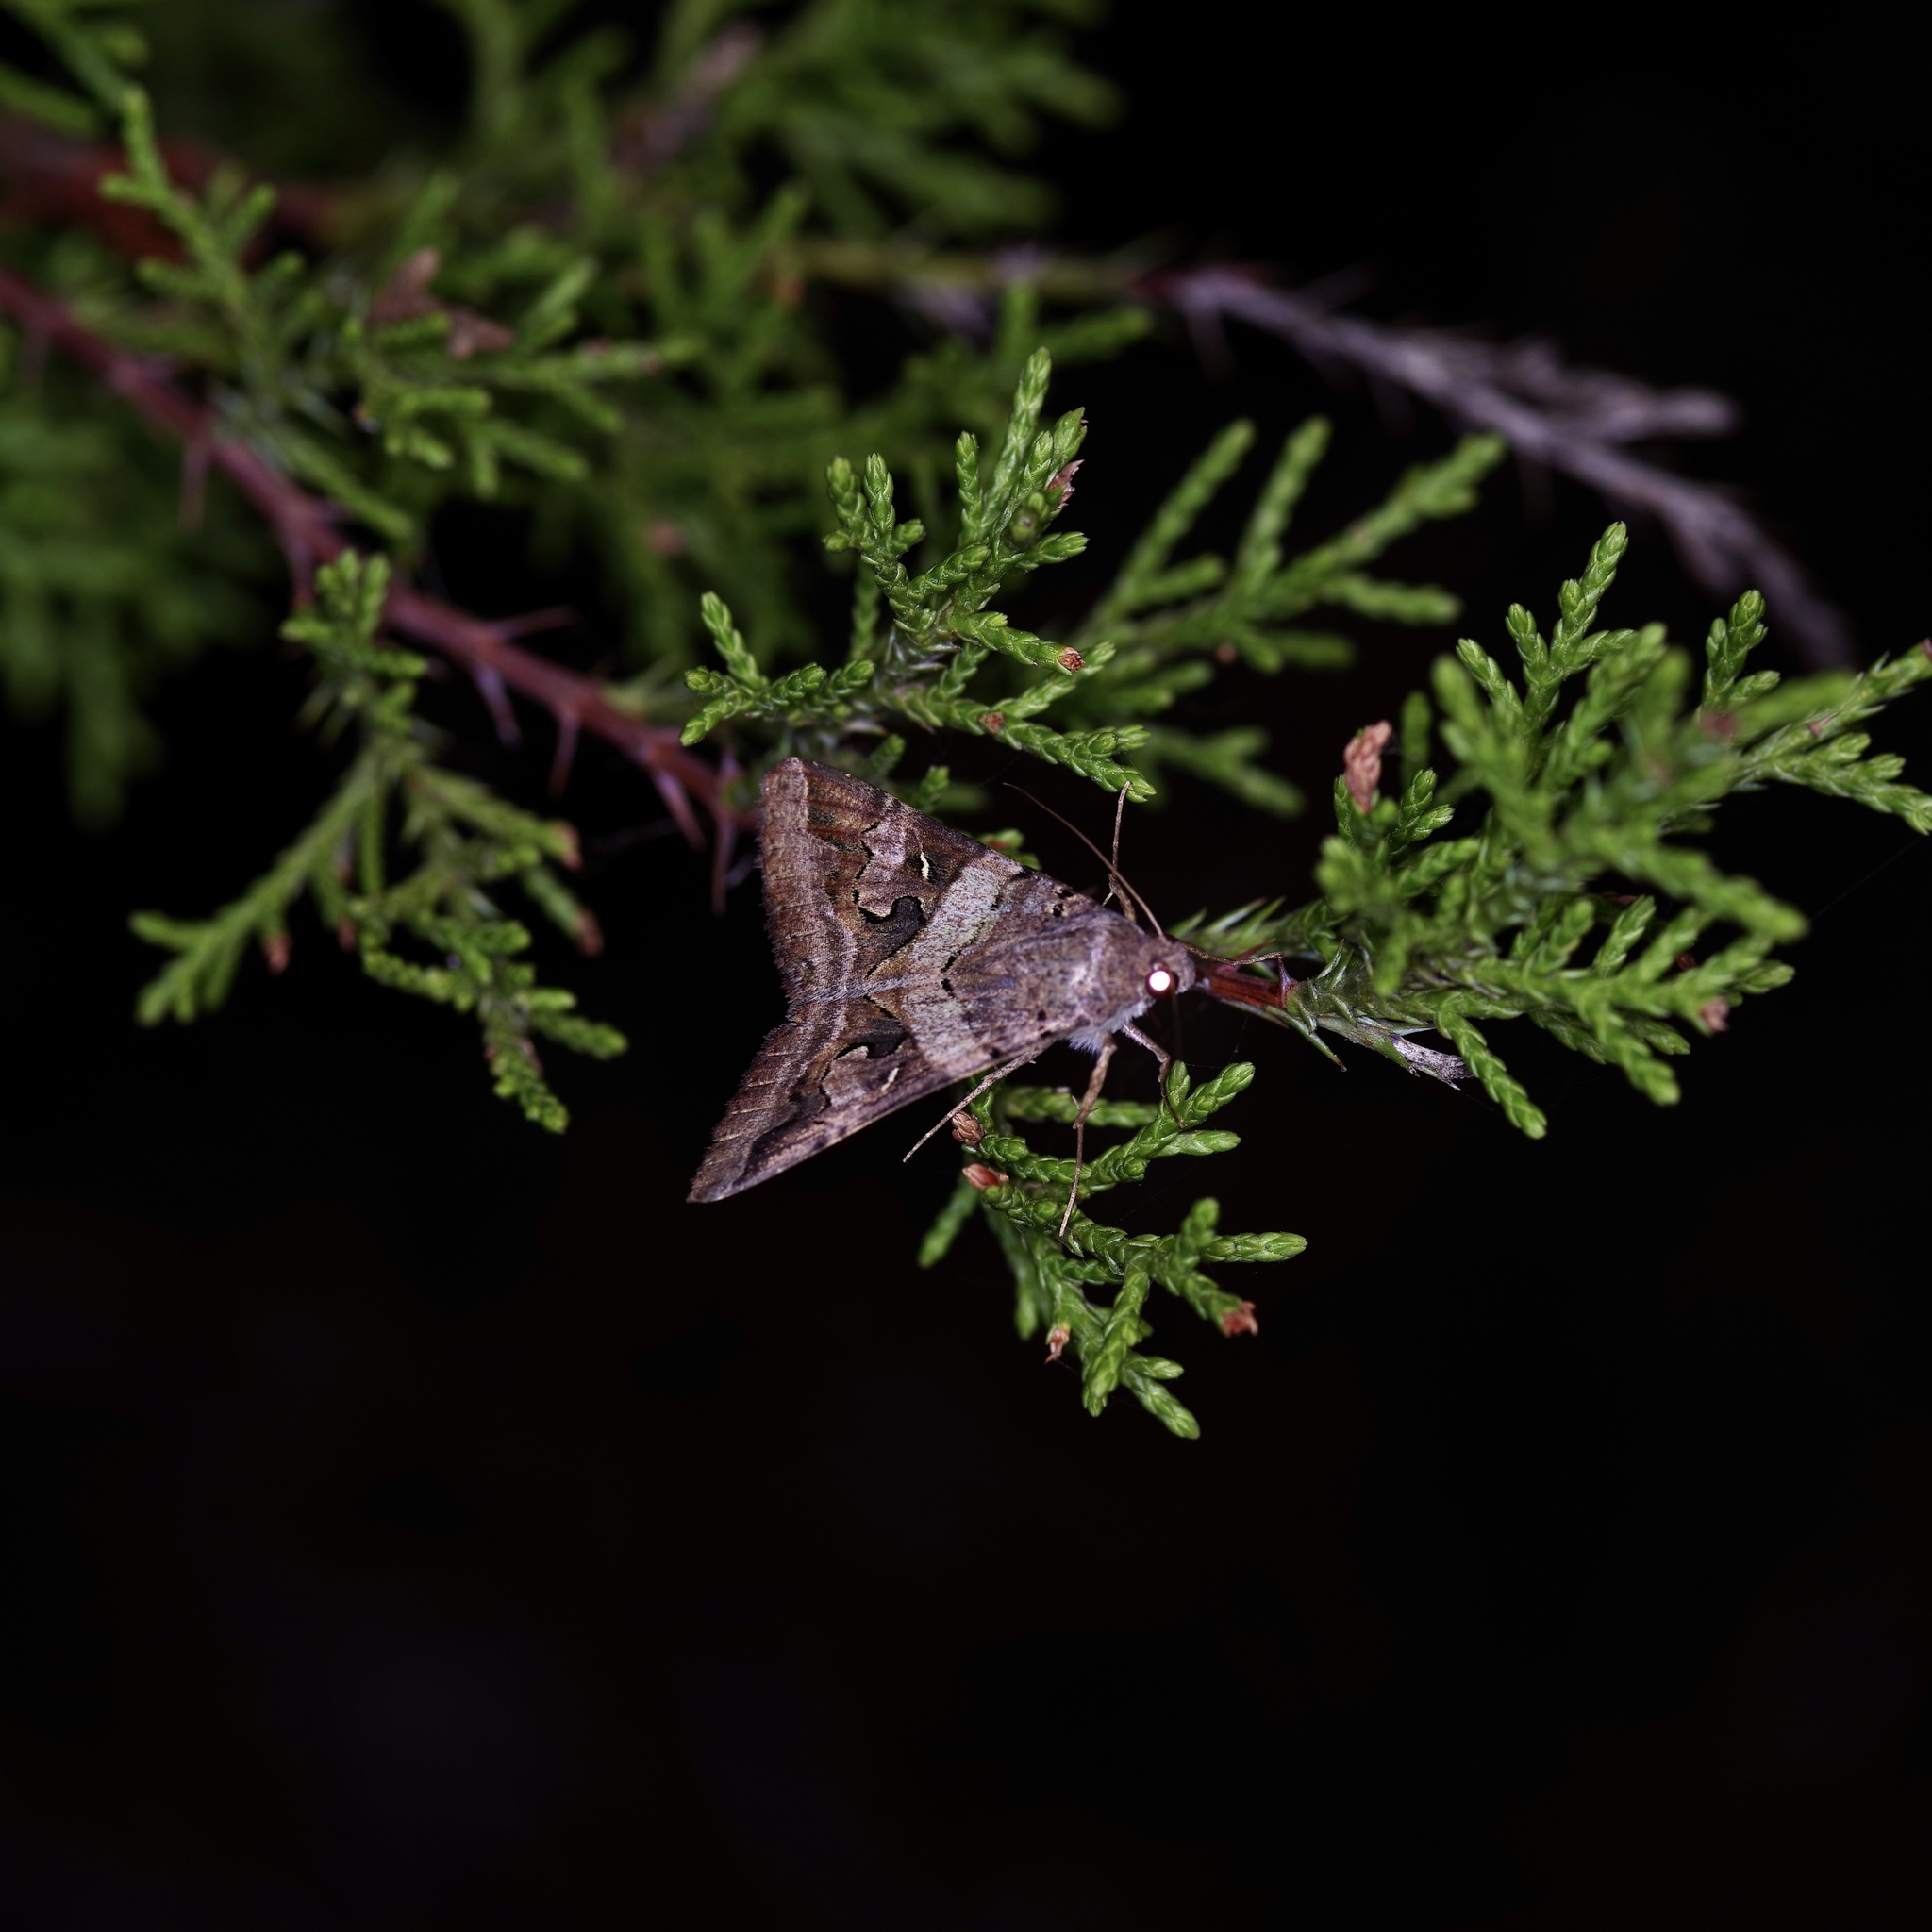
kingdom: Animalia
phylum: Arthropoda
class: Insecta
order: Lepidoptera
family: Erebidae
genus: Melipotis
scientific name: Melipotis indomita
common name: Moth
